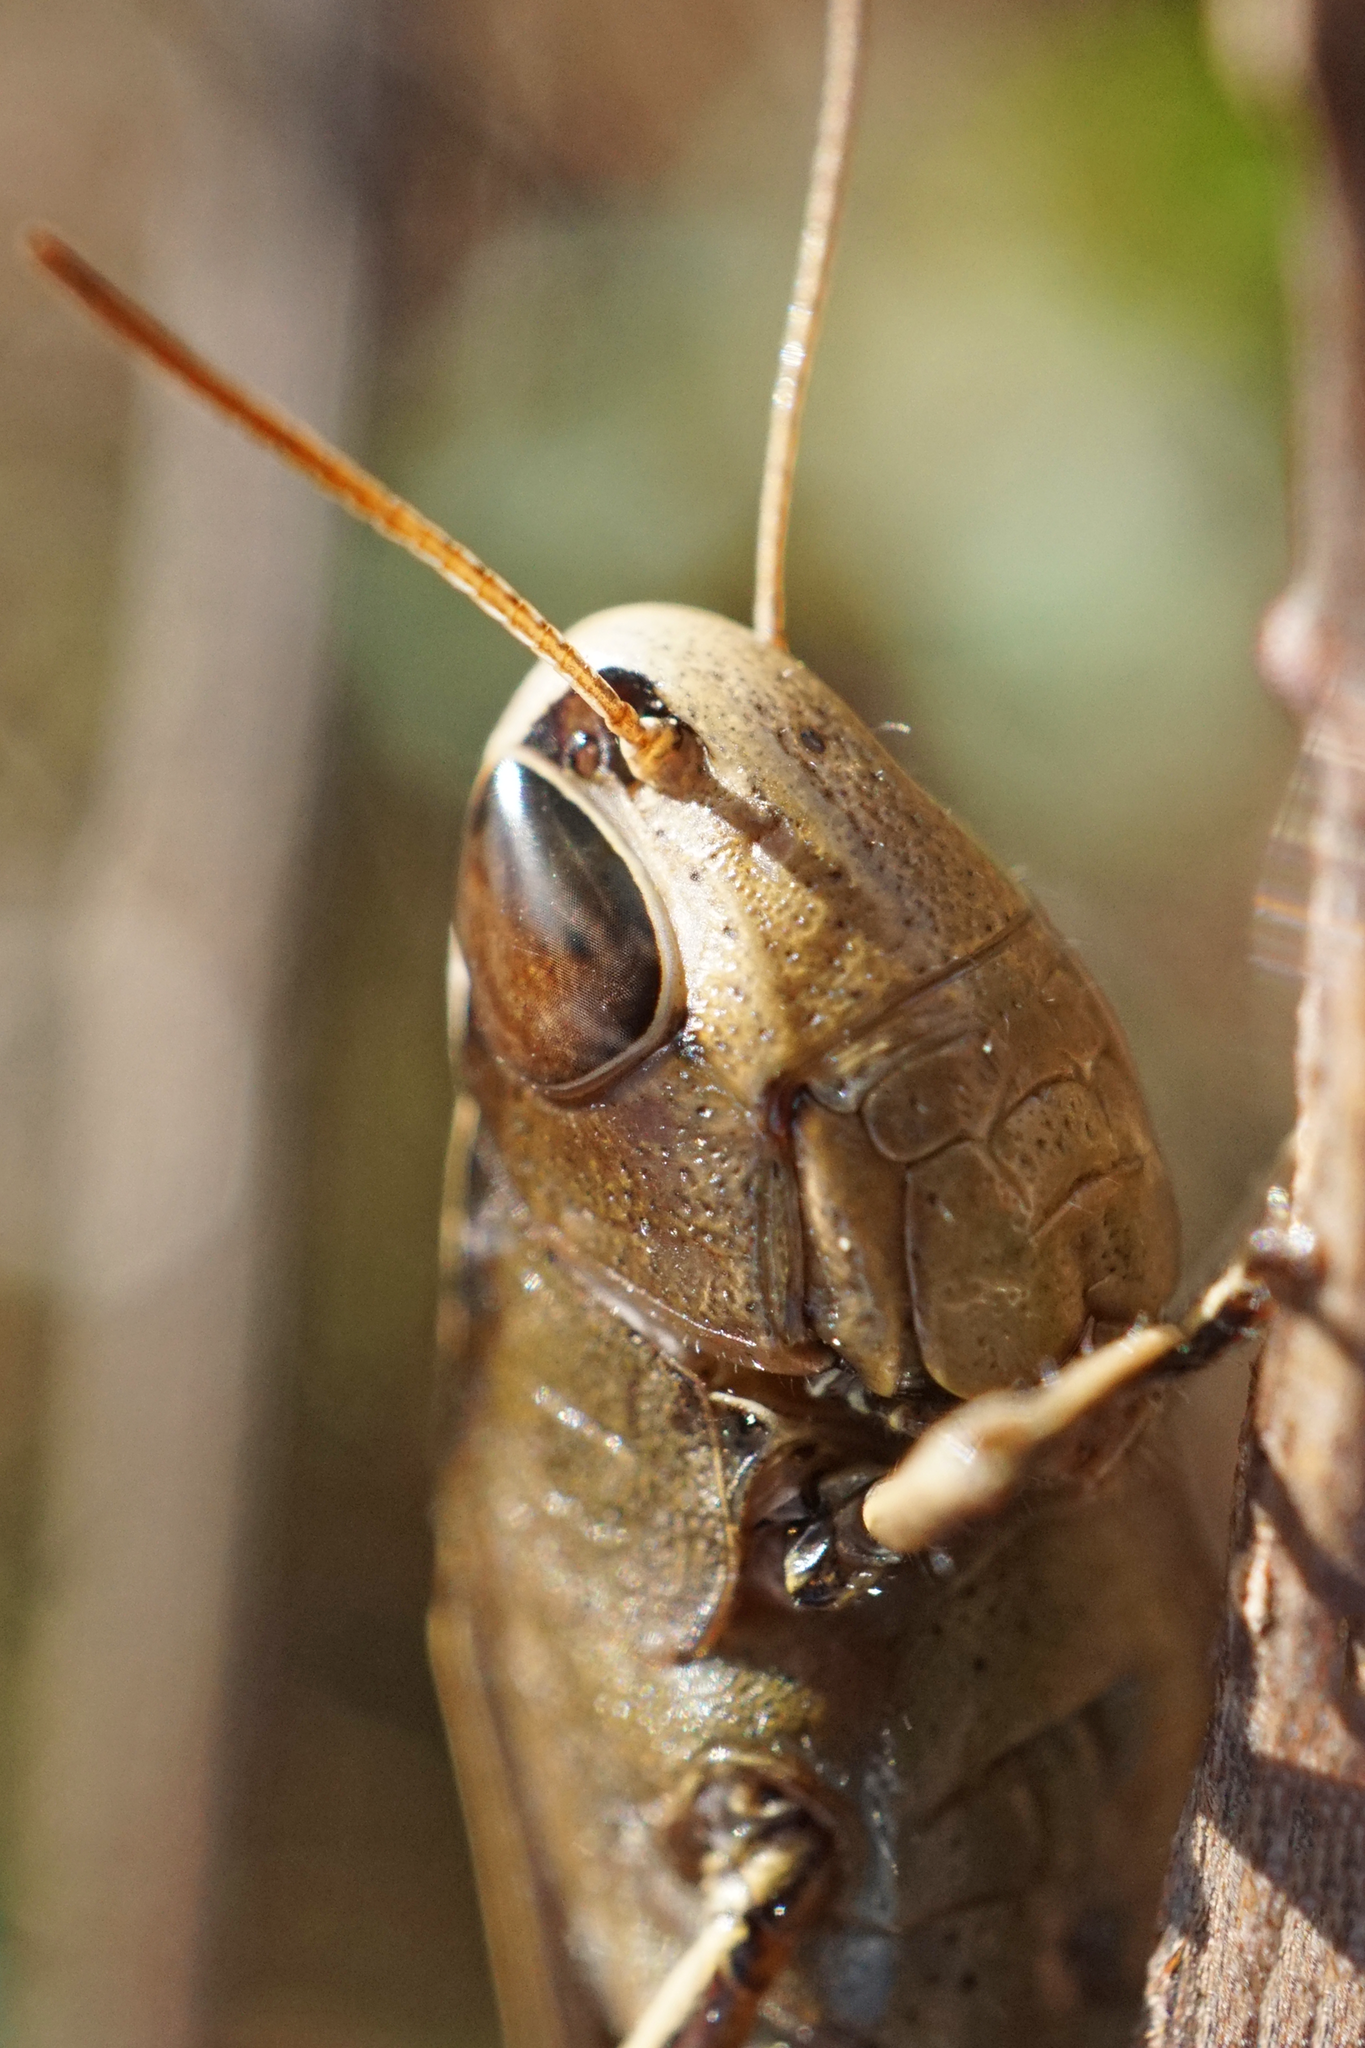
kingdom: Animalia
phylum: Arthropoda
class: Insecta
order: Orthoptera
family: Acrididae
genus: Amblytropidia
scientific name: Amblytropidia mysteca
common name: Brown winter grasshopper
